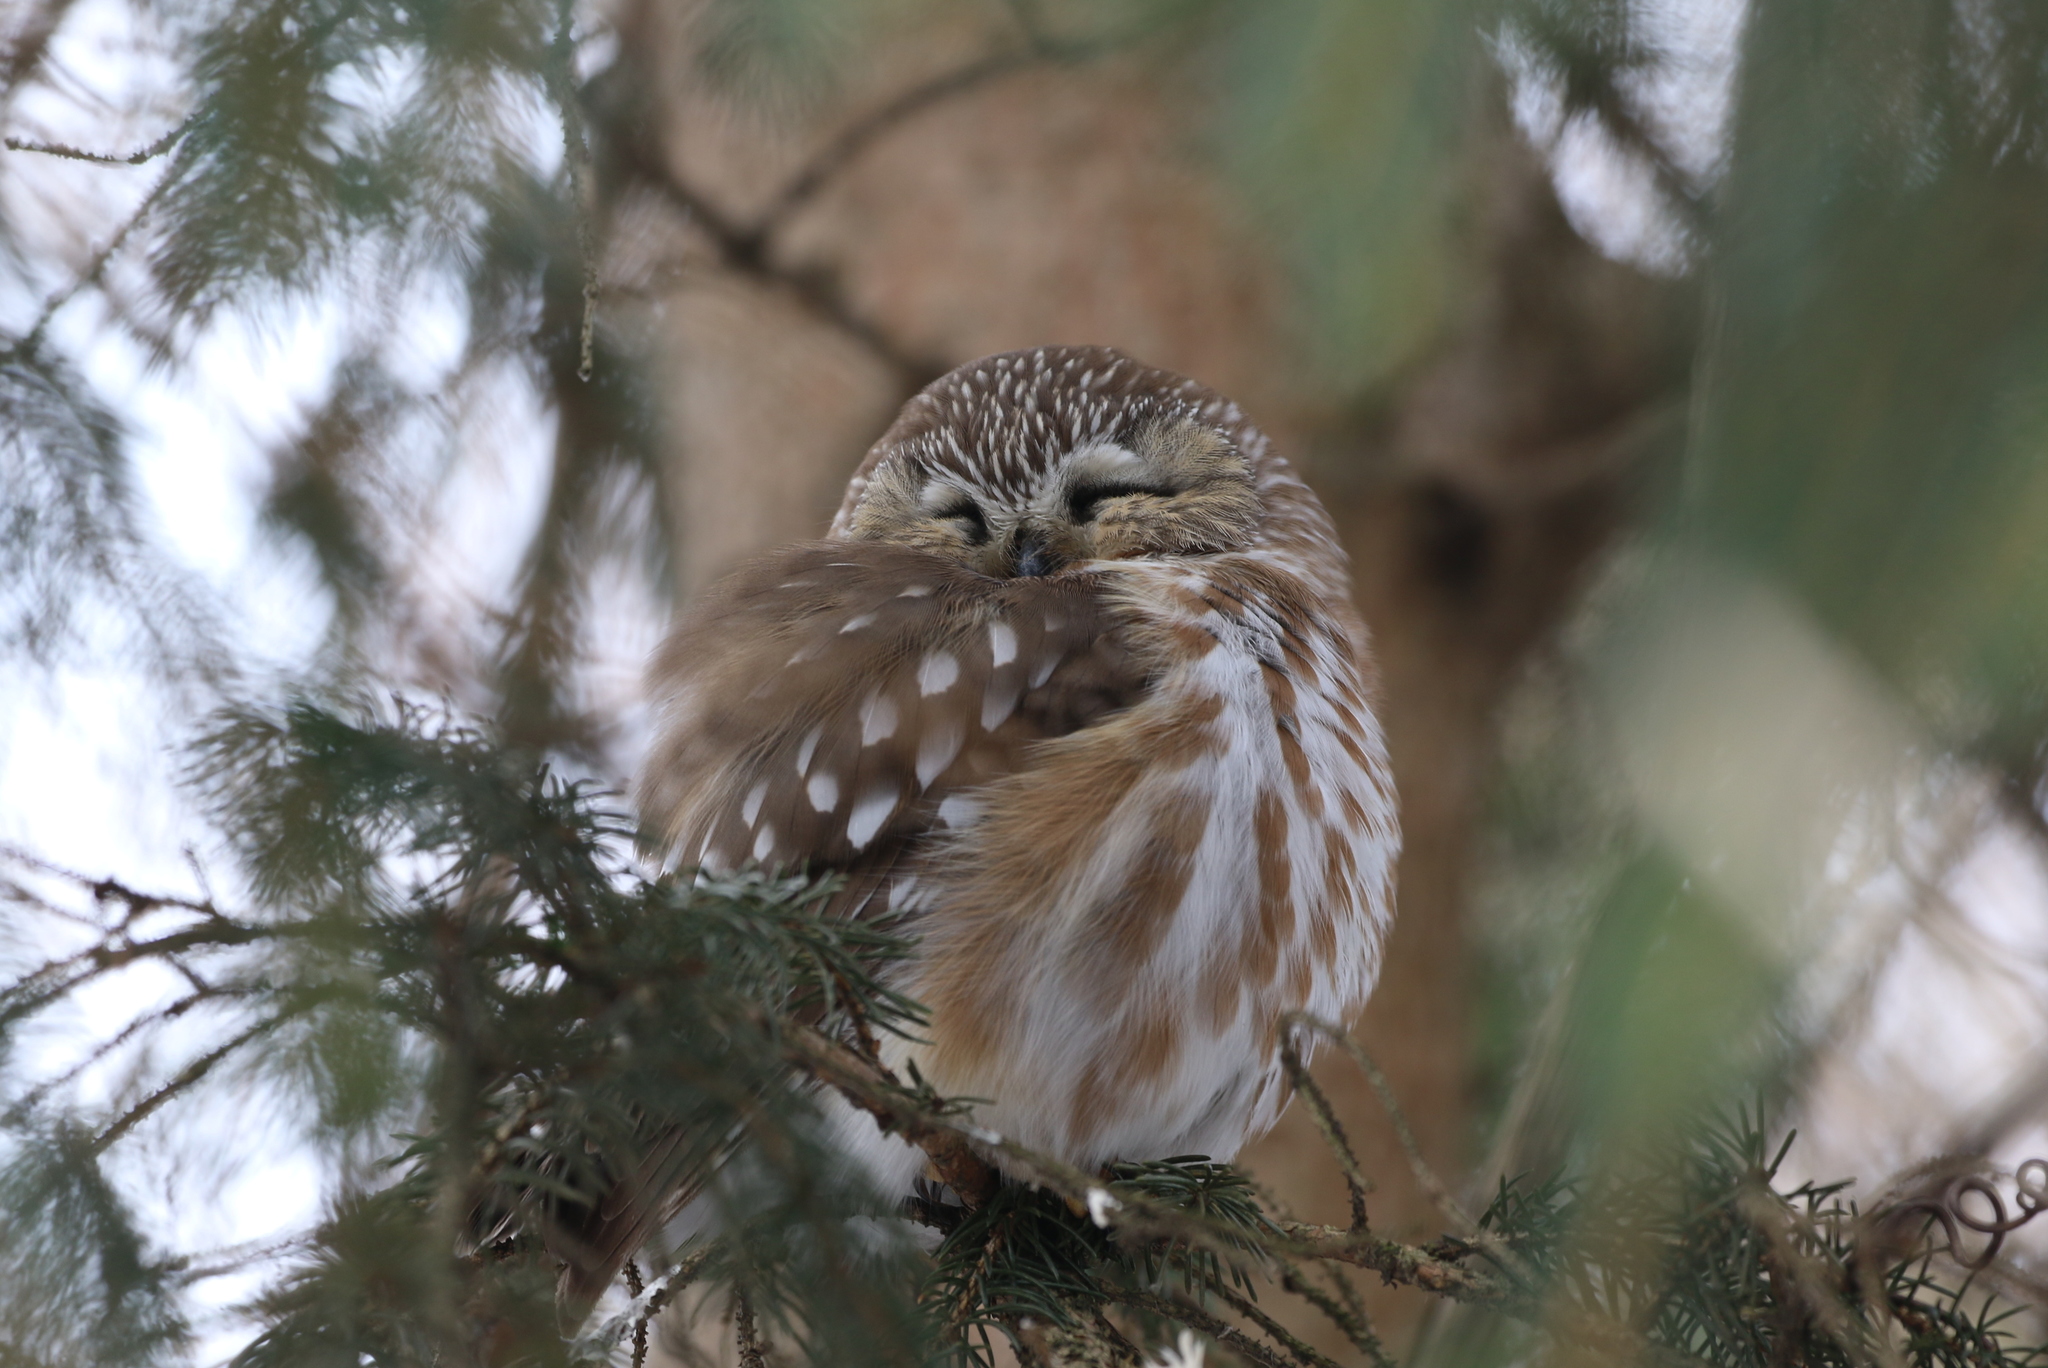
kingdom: Animalia
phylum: Chordata
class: Aves
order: Strigiformes
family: Strigidae
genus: Aegolius
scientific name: Aegolius acadicus
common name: Northern saw-whet owl
